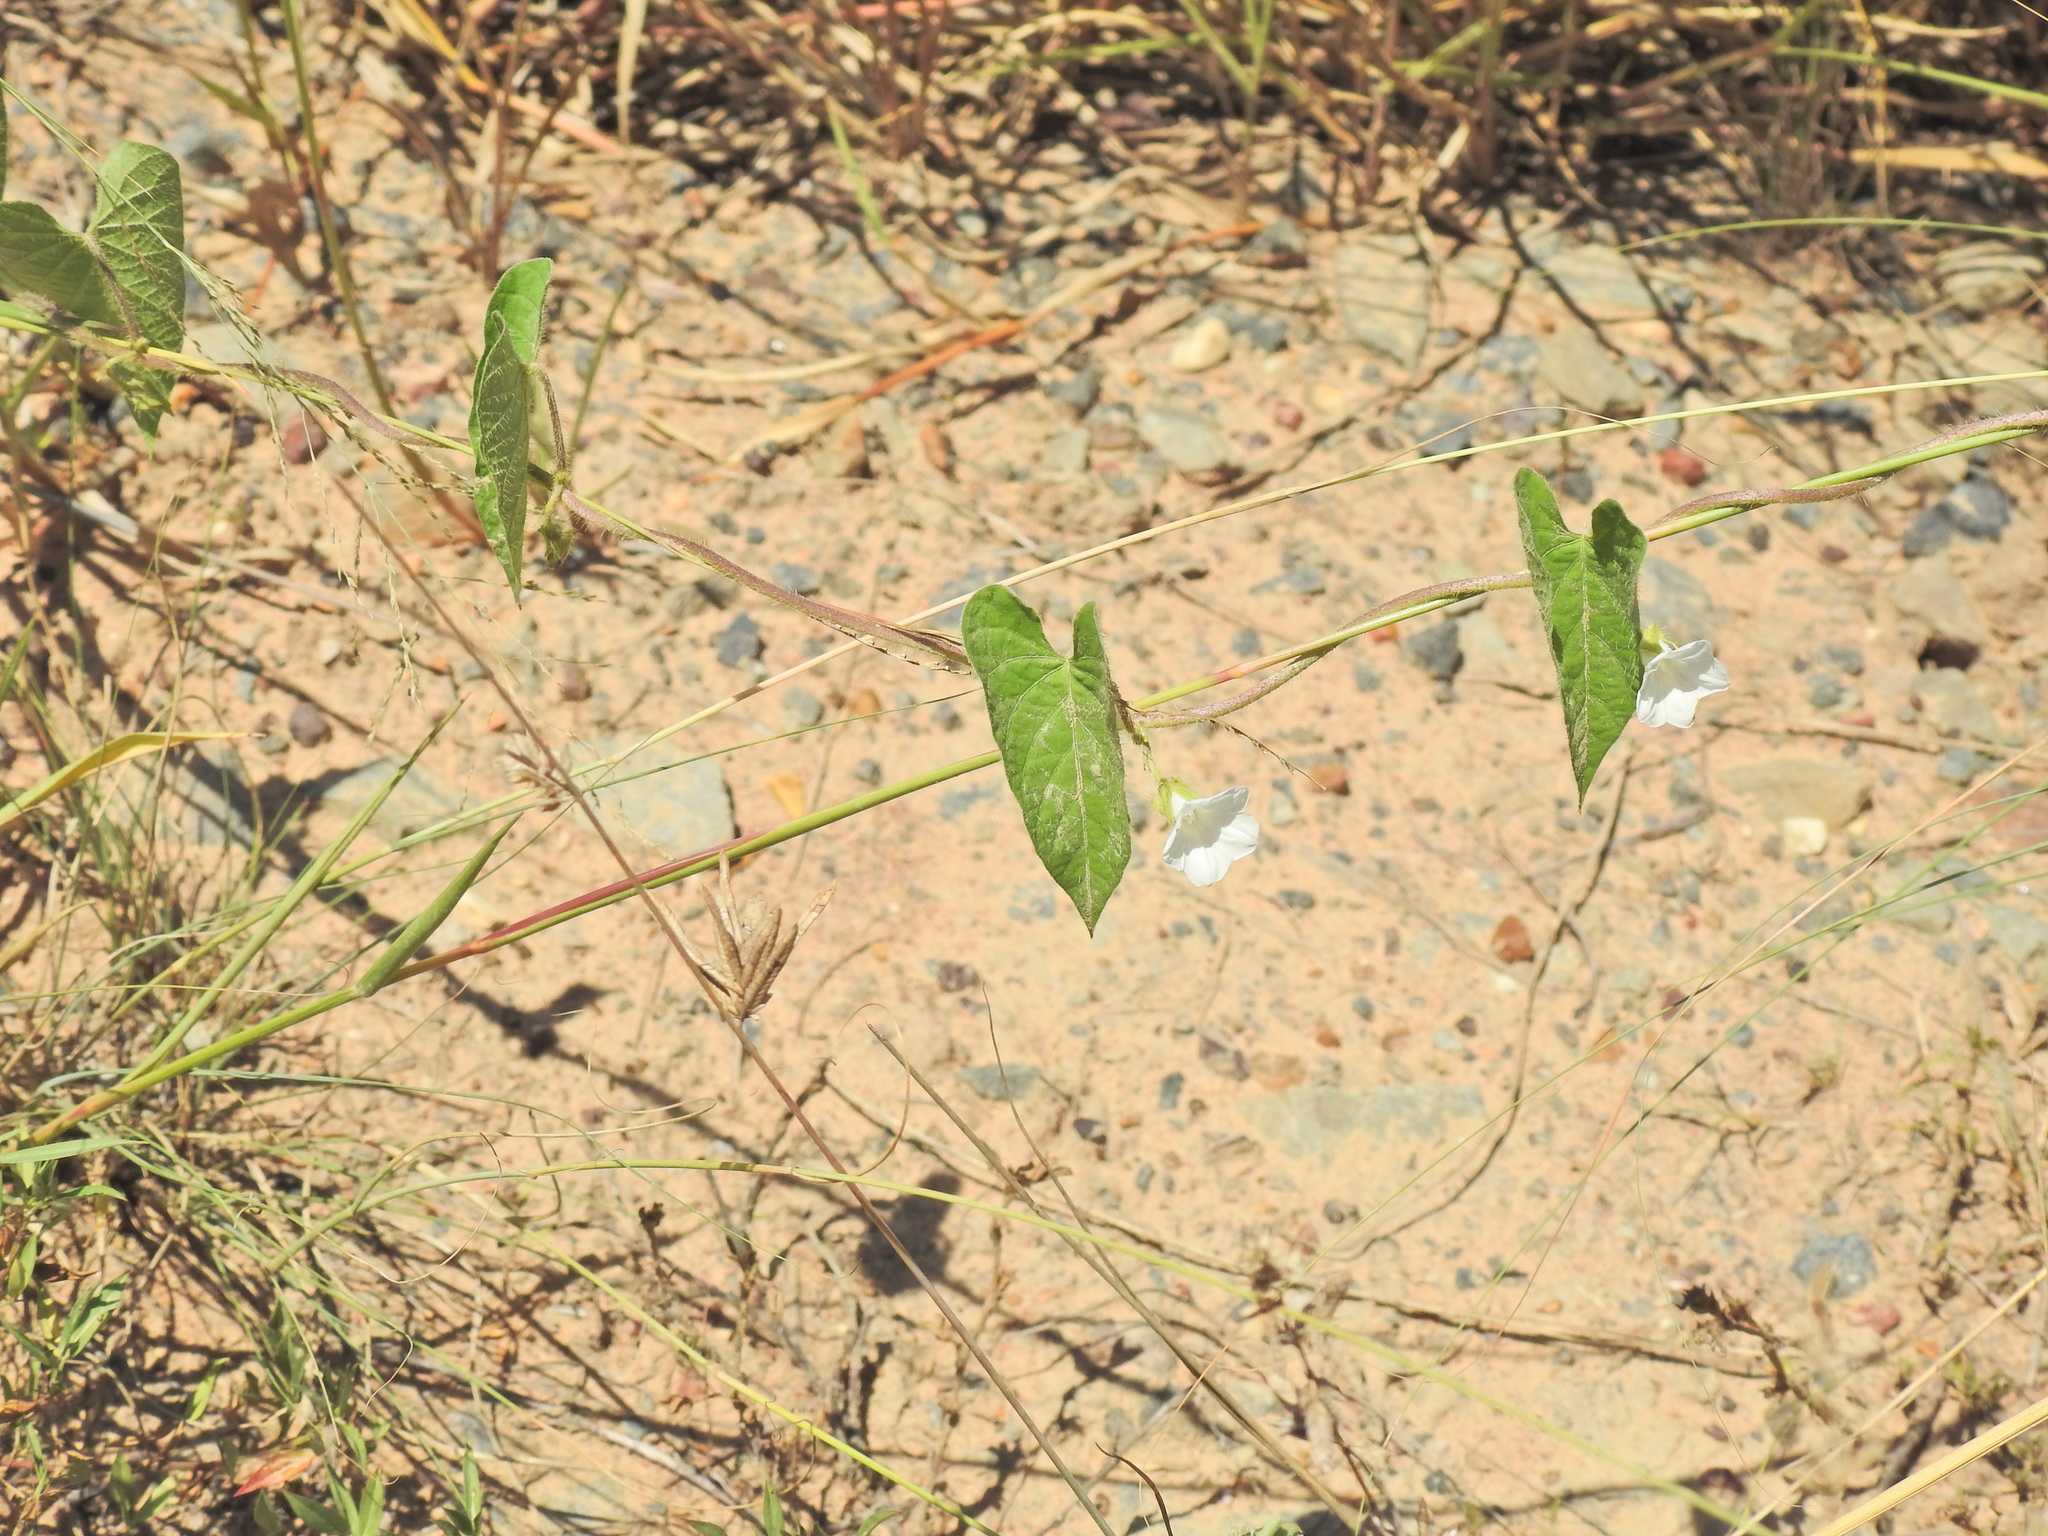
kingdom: Plantae
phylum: Tracheophyta
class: Magnoliopsida
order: Solanales
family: Convolvulaceae
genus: Ipomoea
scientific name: Ipomoea biflora
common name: Bellvine
